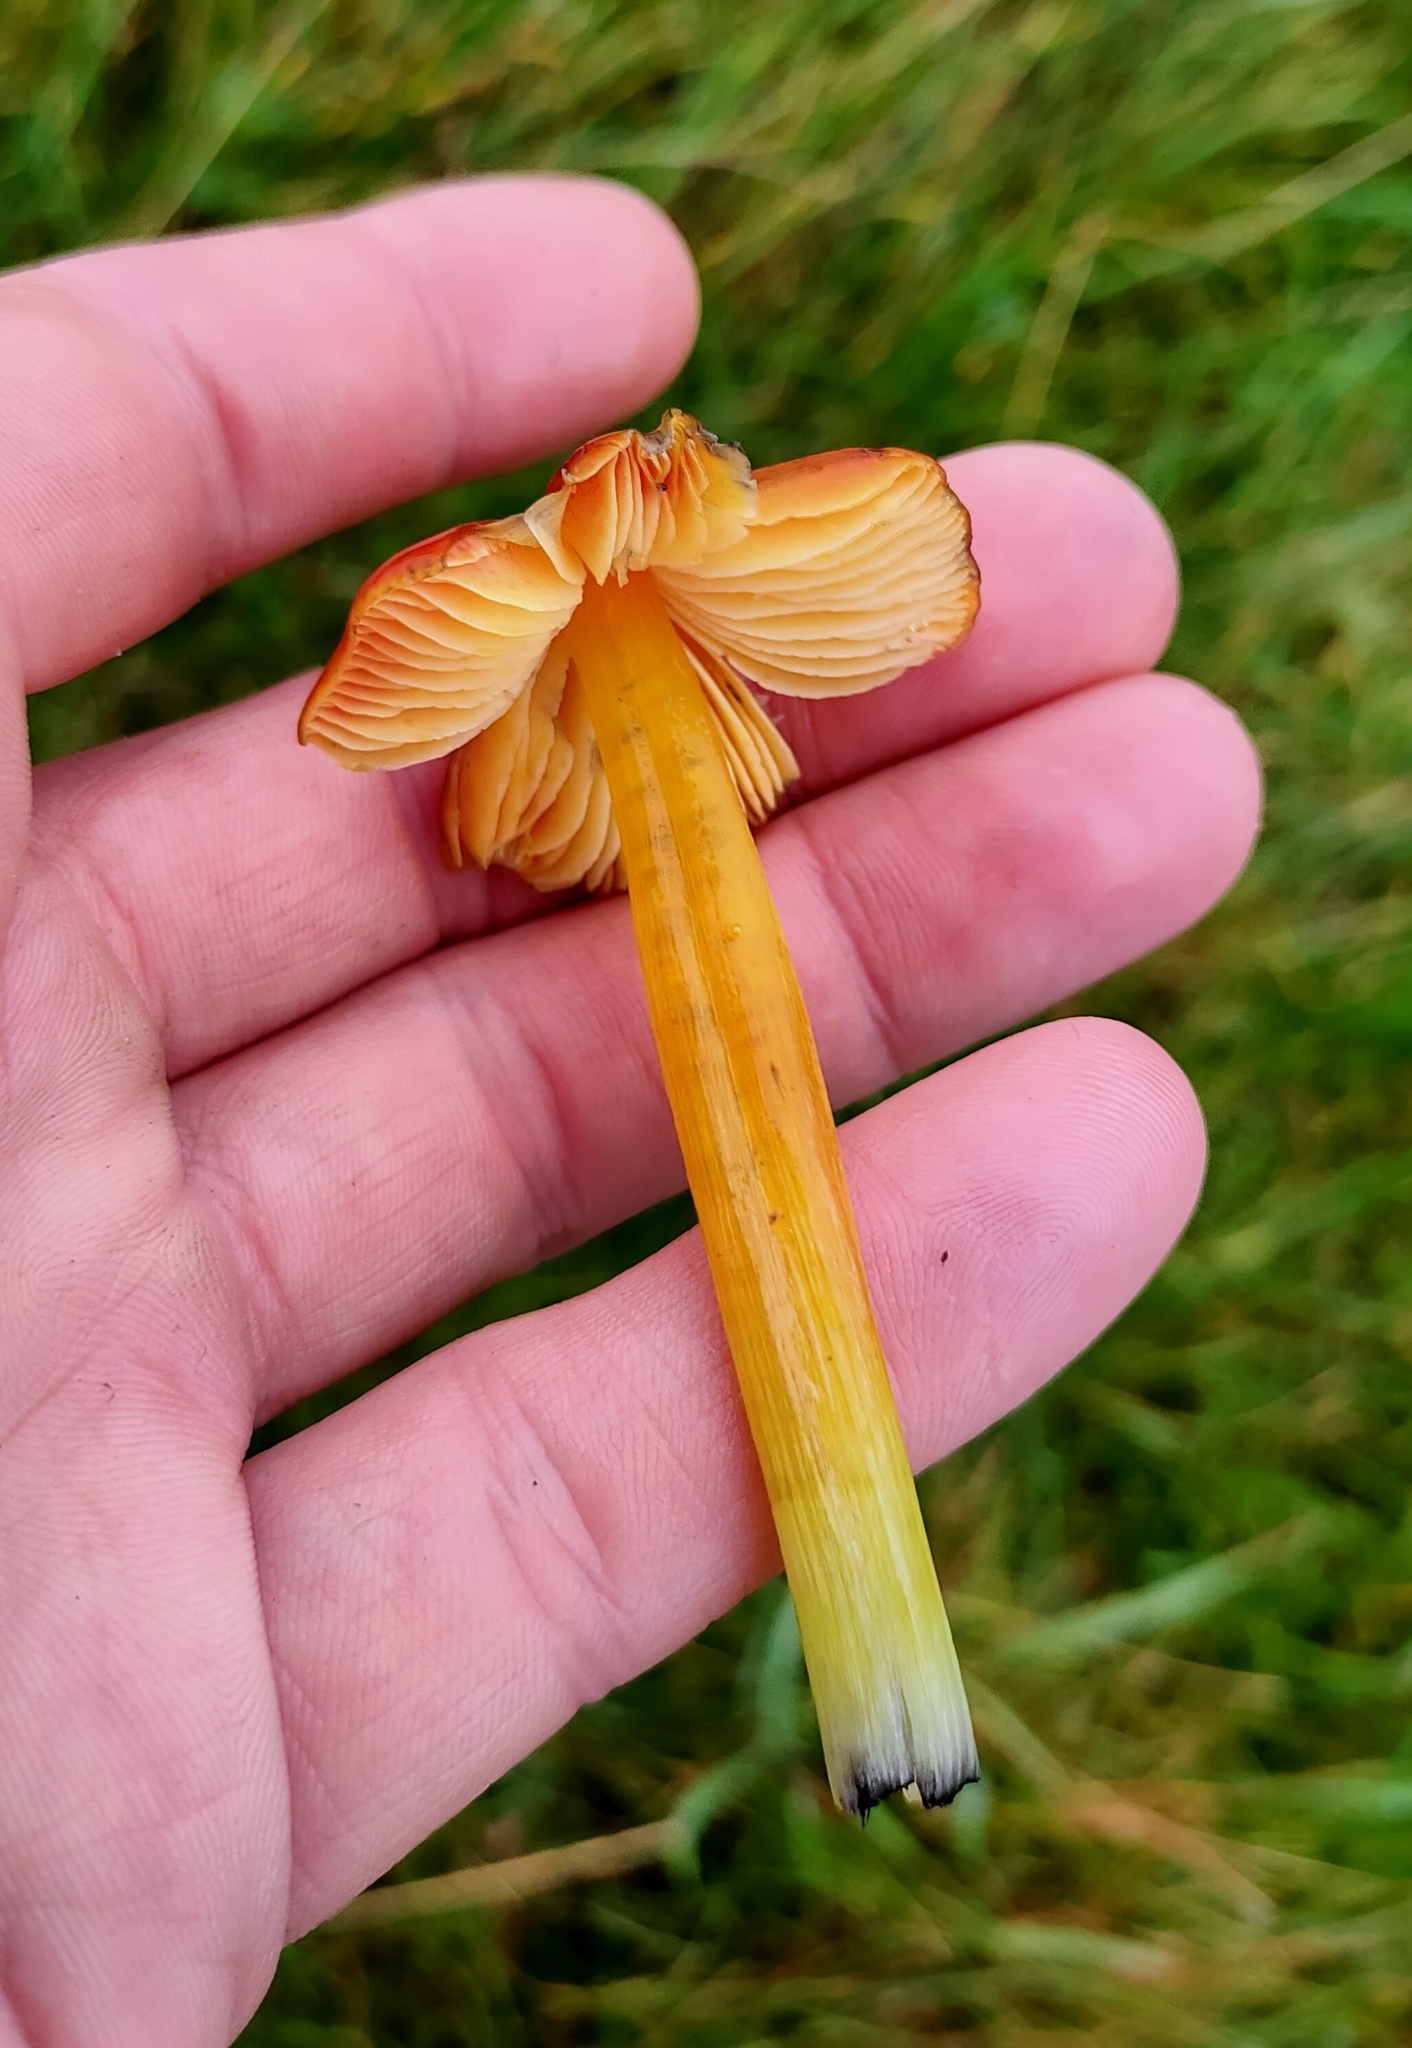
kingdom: Fungi
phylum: Basidiomycota
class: Agaricomycetes
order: Agaricales
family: Hygrophoraceae
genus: Hygrocybe
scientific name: Hygrocybe conica
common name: Blackening wax-cap
